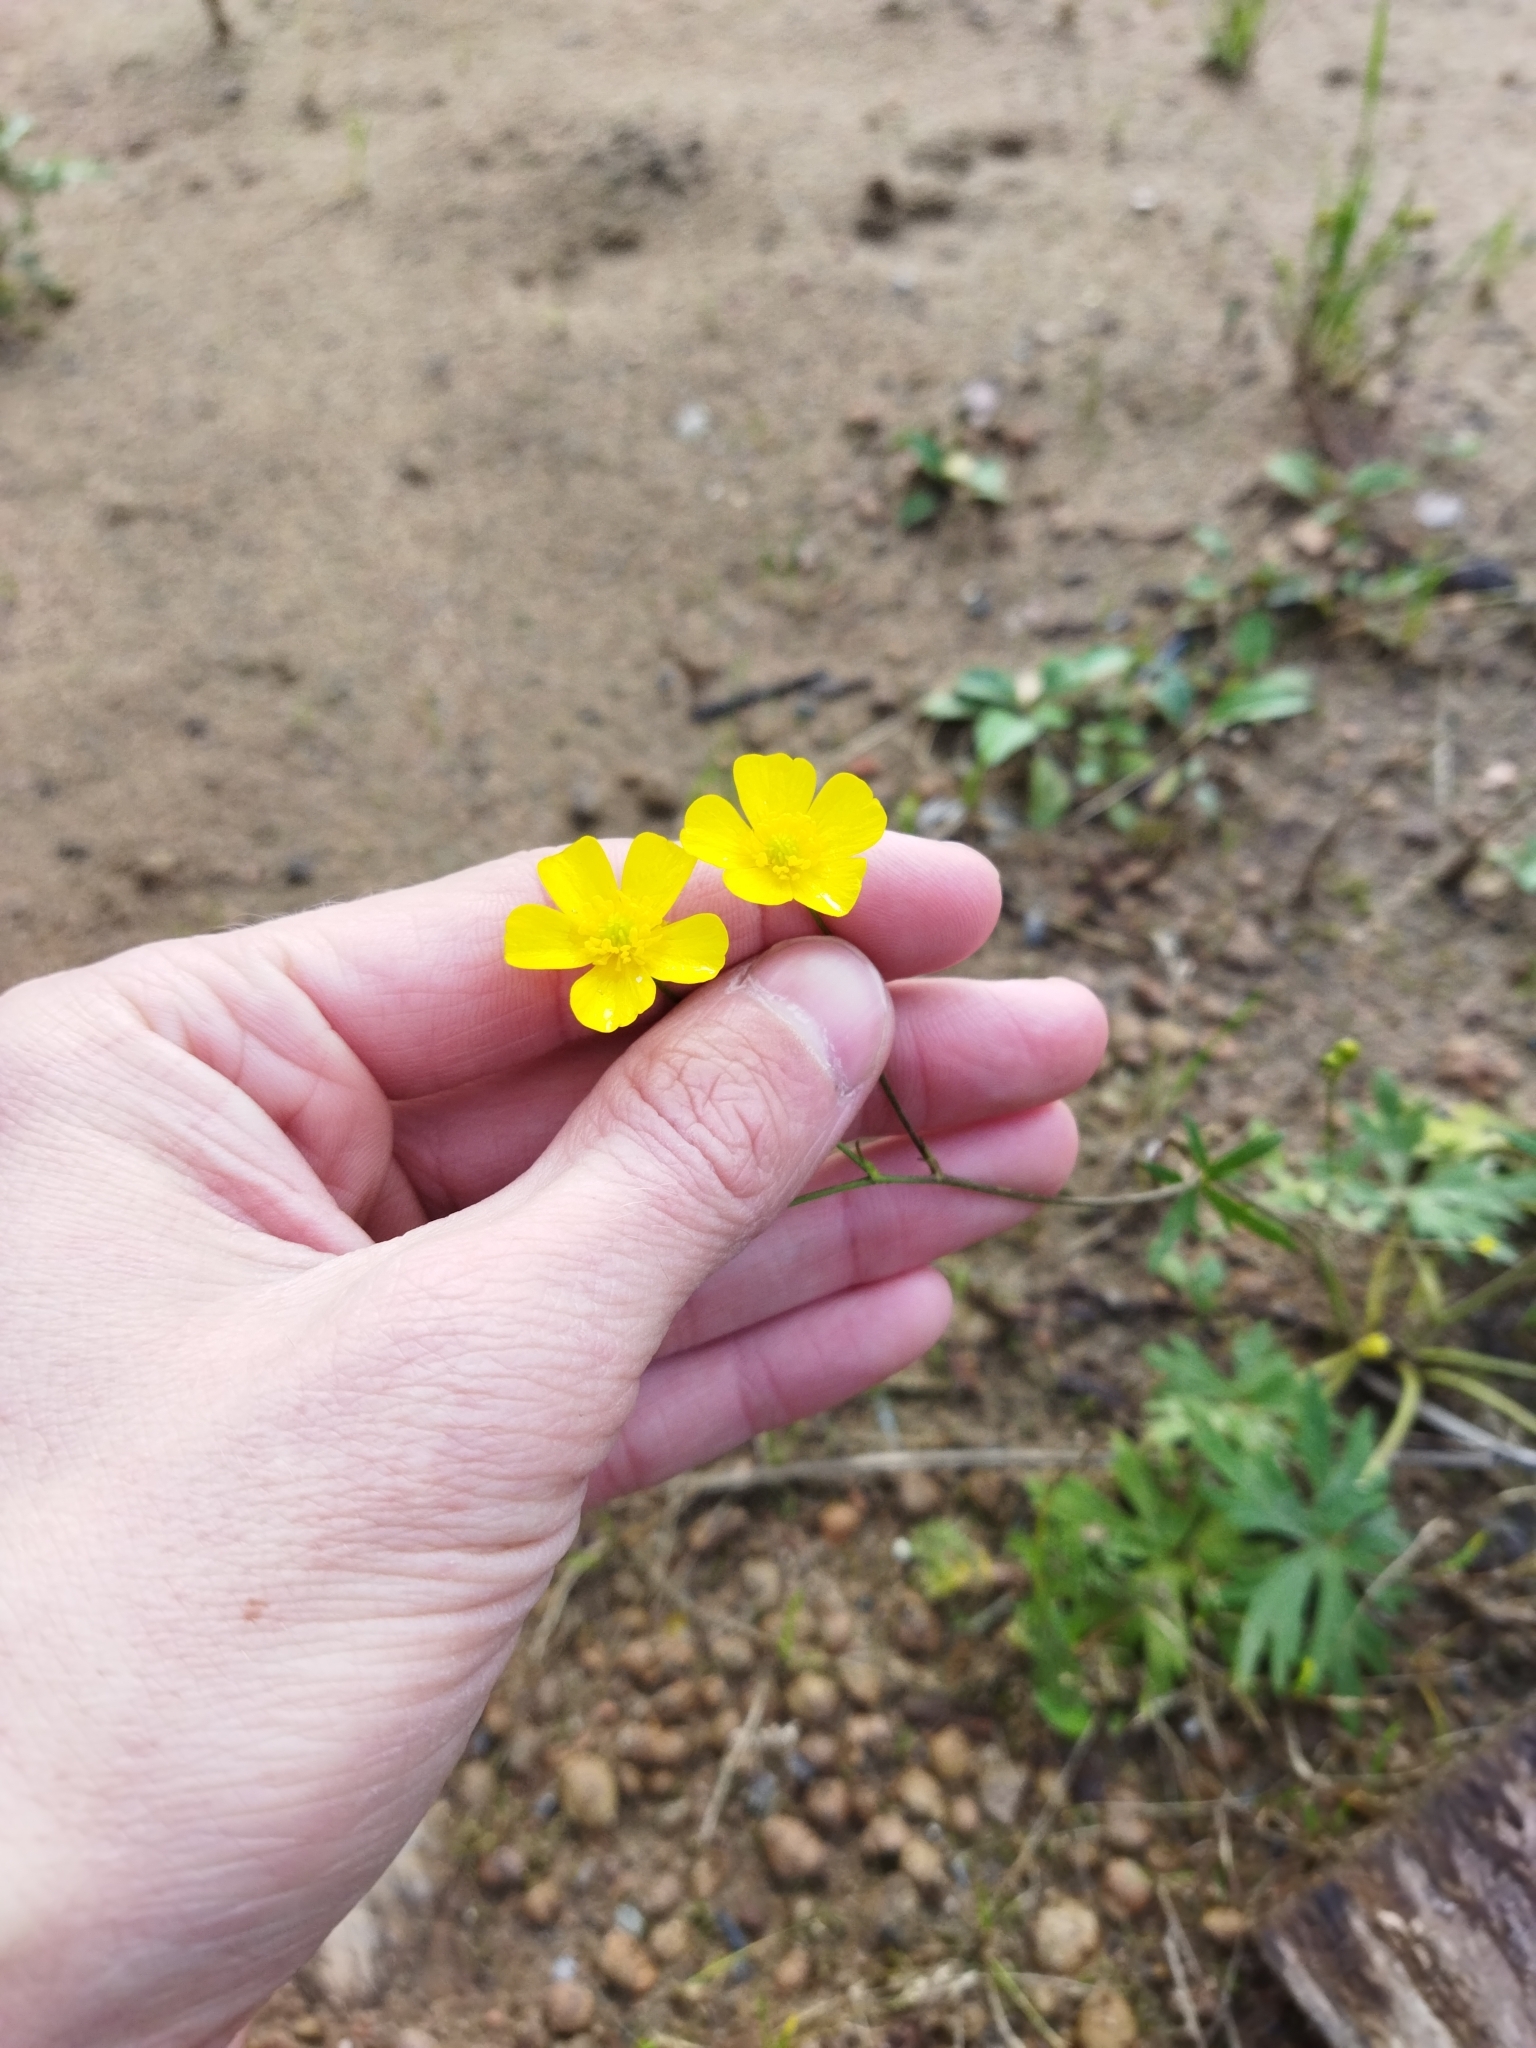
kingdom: Plantae
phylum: Tracheophyta
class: Magnoliopsida
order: Ranunculales
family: Ranunculaceae
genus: Ranunculus
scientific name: Ranunculus acris
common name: Meadow buttercup
